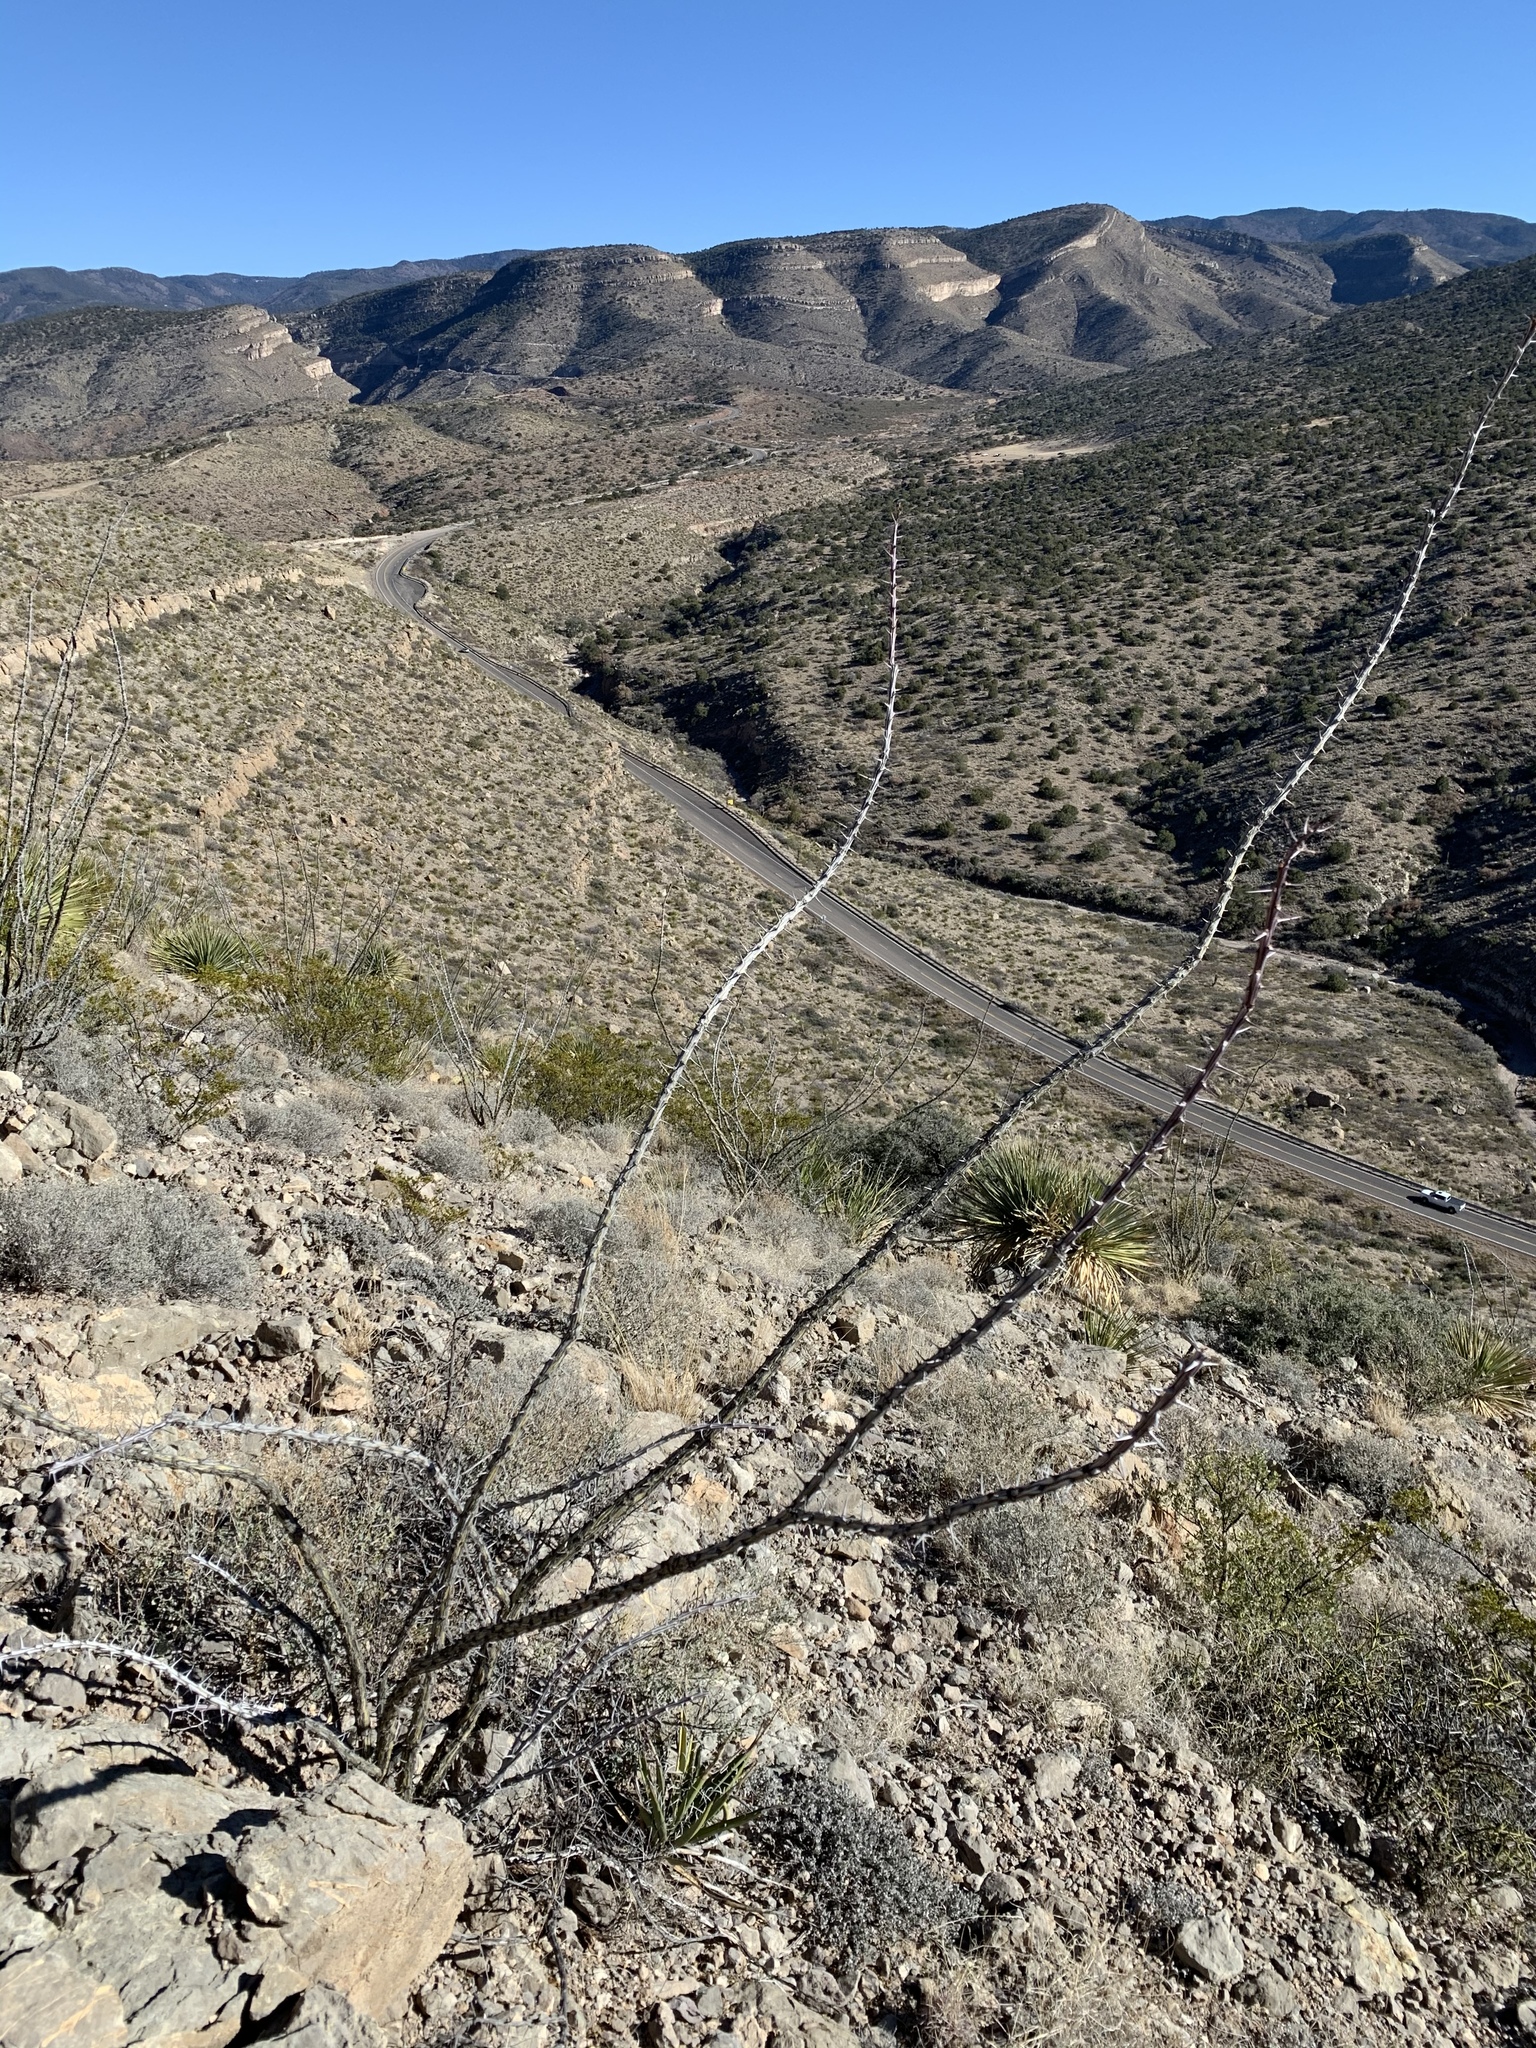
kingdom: Plantae
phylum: Tracheophyta
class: Magnoliopsida
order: Ericales
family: Fouquieriaceae
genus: Fouquieria
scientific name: Fouquieria splendens
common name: Vine-cactus
